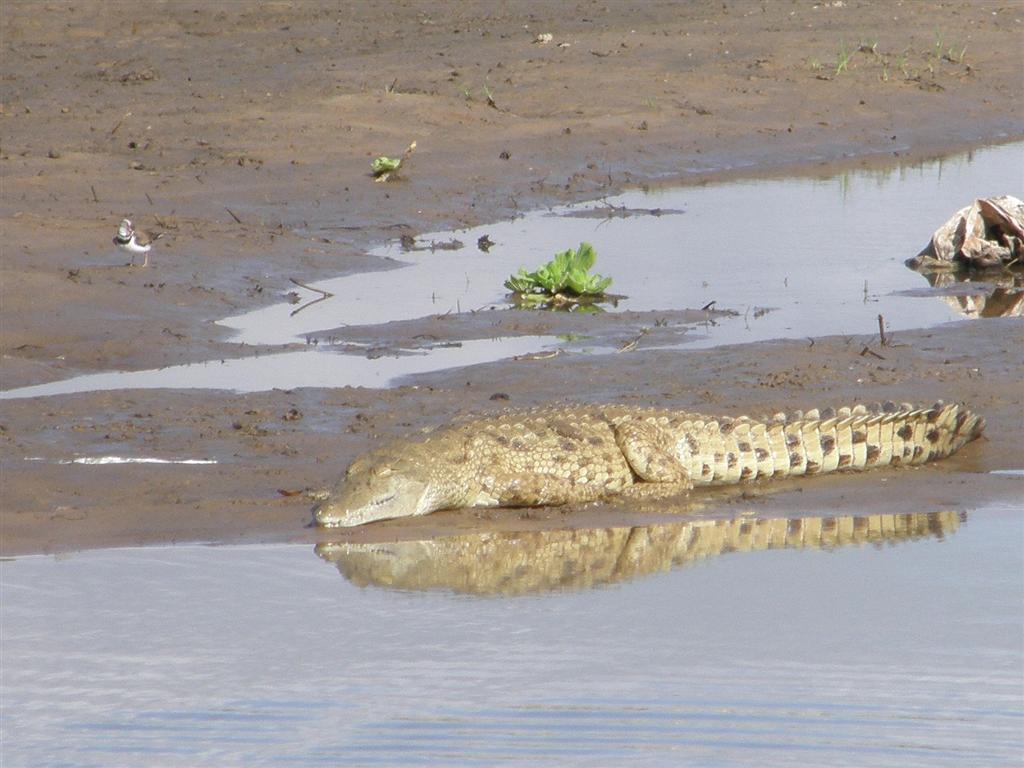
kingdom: Animalia
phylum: Chordata
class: Crocodylia
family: Crocodylidae
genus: Crocodylus
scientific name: Crocodylus niloticus
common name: Nile crocodile
